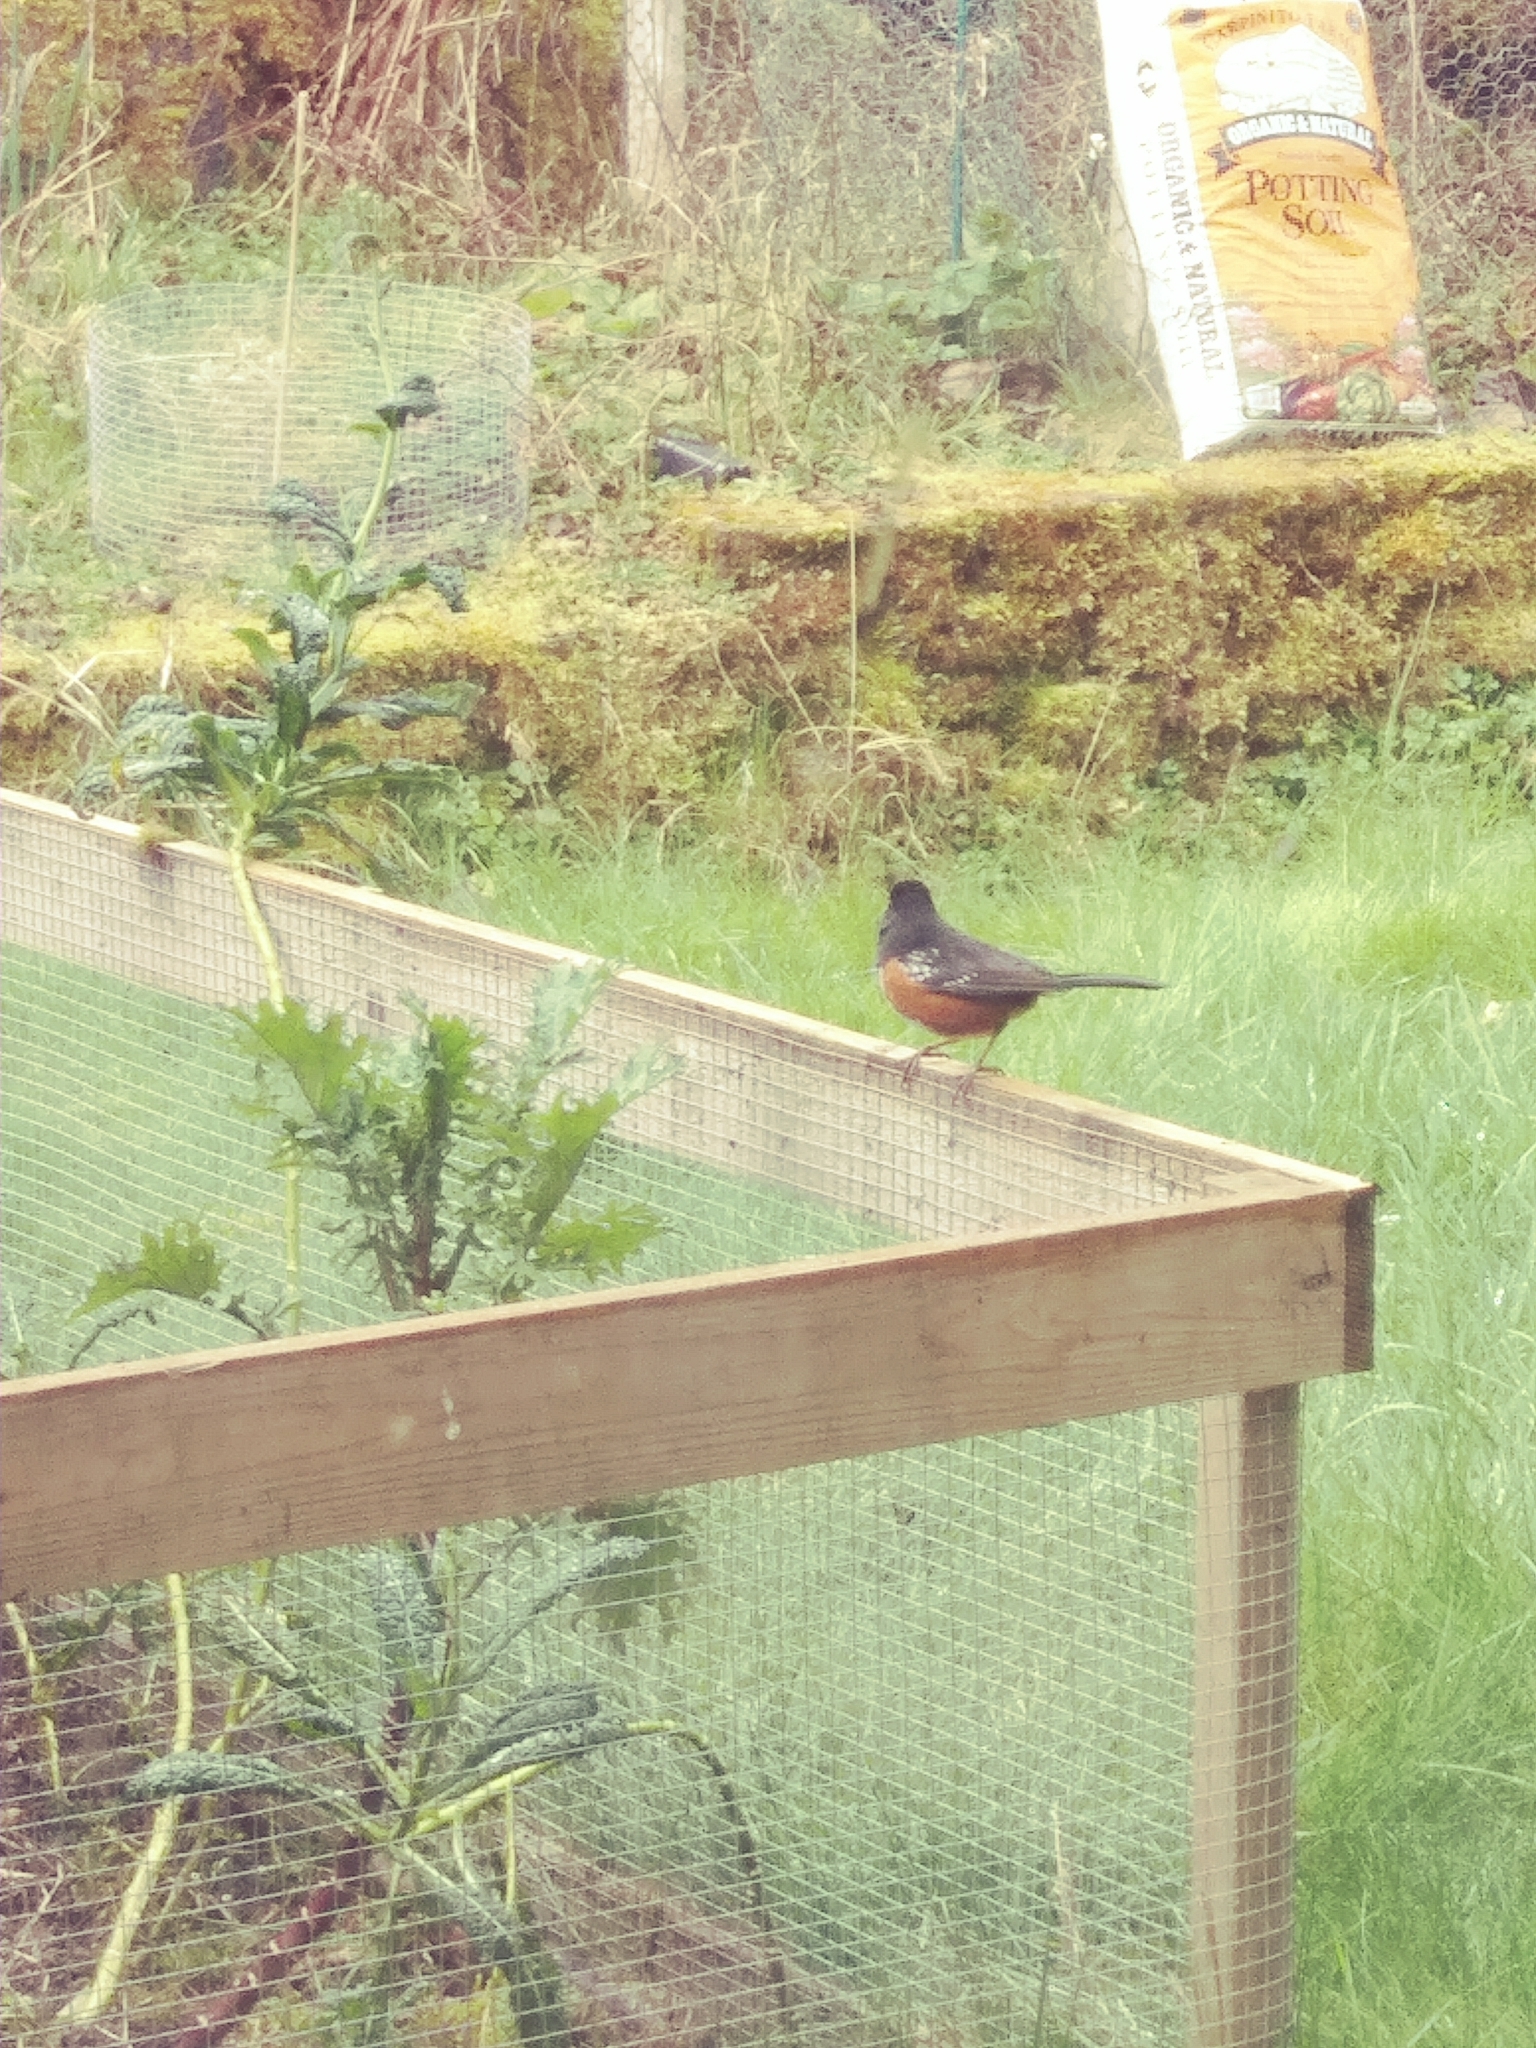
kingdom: Animalia
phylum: Chordata
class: Aves
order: Passeriformes
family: Passerellidae
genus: Pipilo
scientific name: Pipilo maculatus
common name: Spotted towhee
